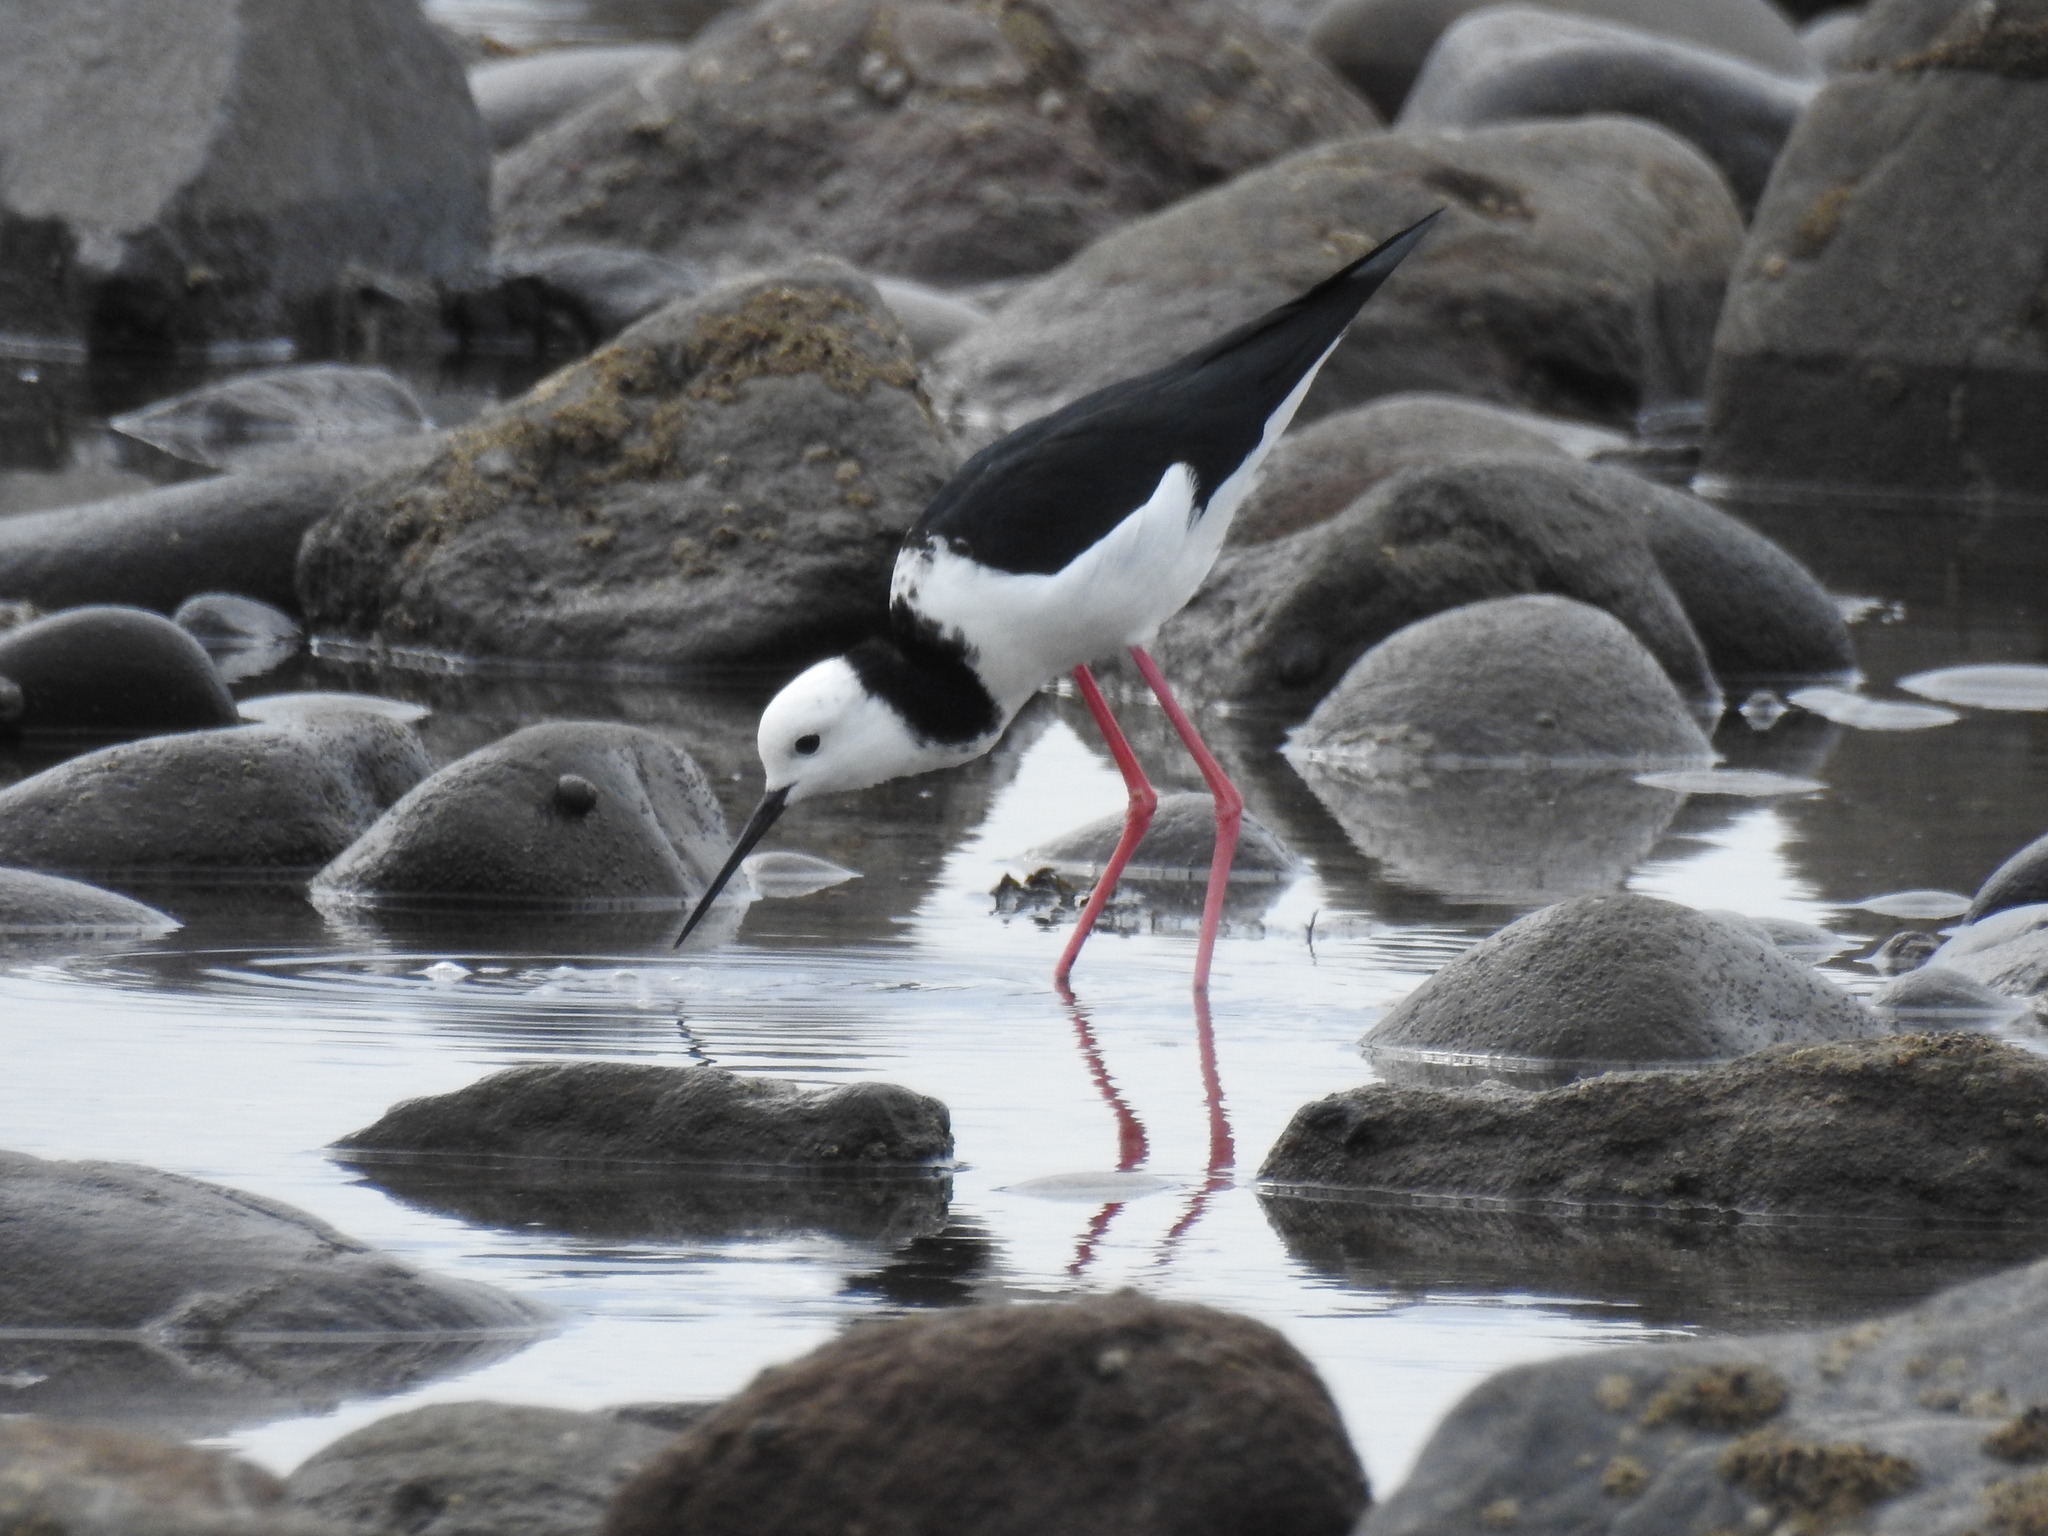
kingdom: Animalia
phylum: Chordata
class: Aves
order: Charadriiformes
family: Recurvirostridae
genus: Himantopus
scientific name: Himantopus leucocephalus
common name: White-headed stilt
